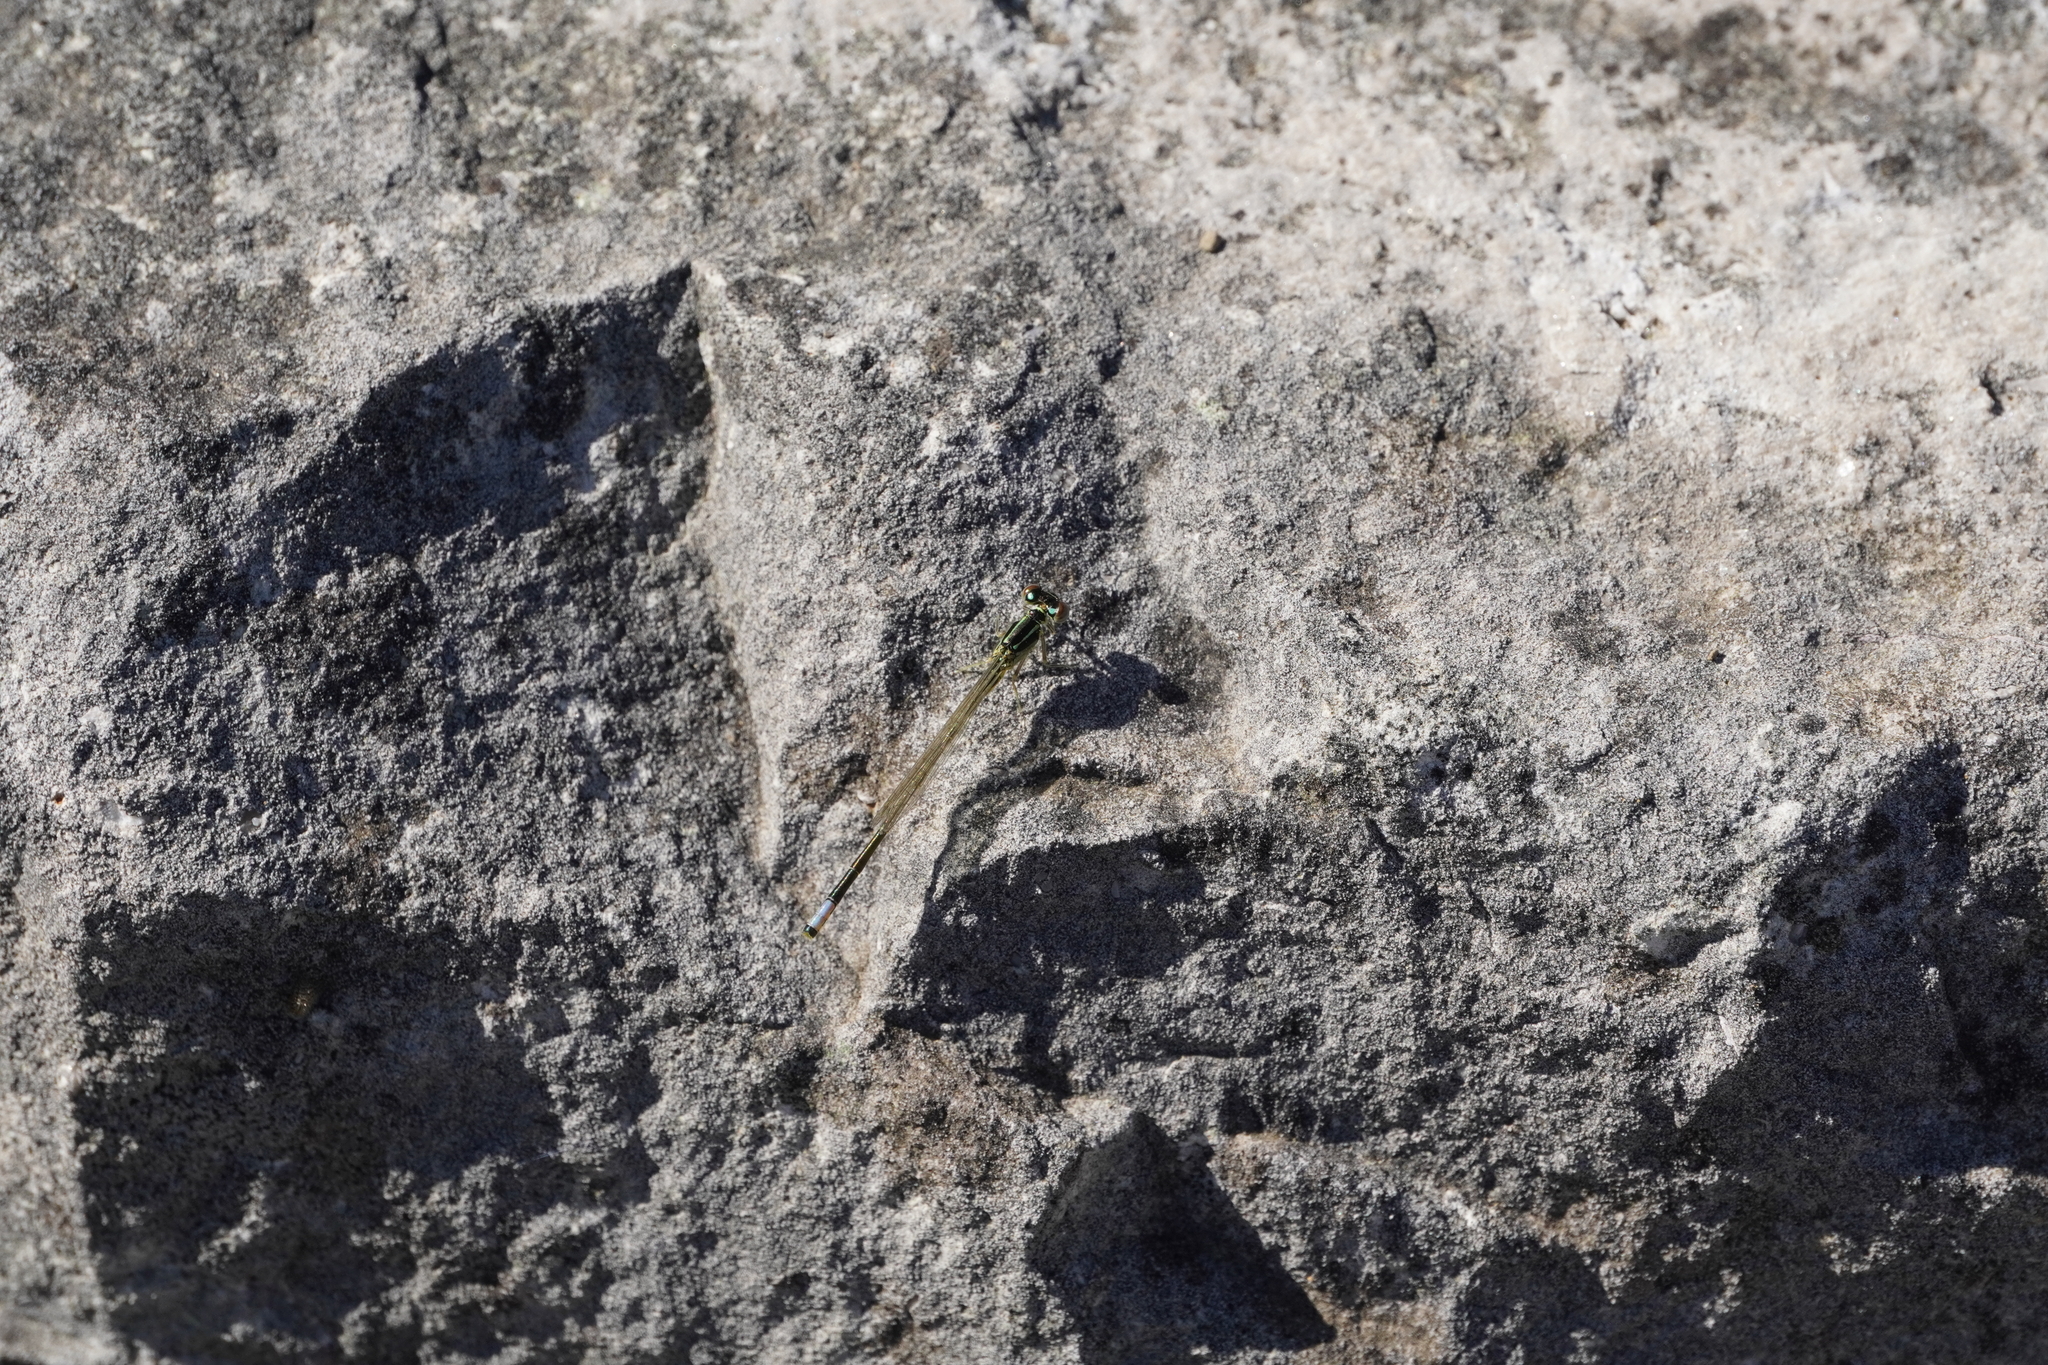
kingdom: Animalia
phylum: Arthropoda
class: Insecta
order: Odonata
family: Coenagrionidae
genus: Ischnura
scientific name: Ischnura verticalis
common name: Eastern forktail
